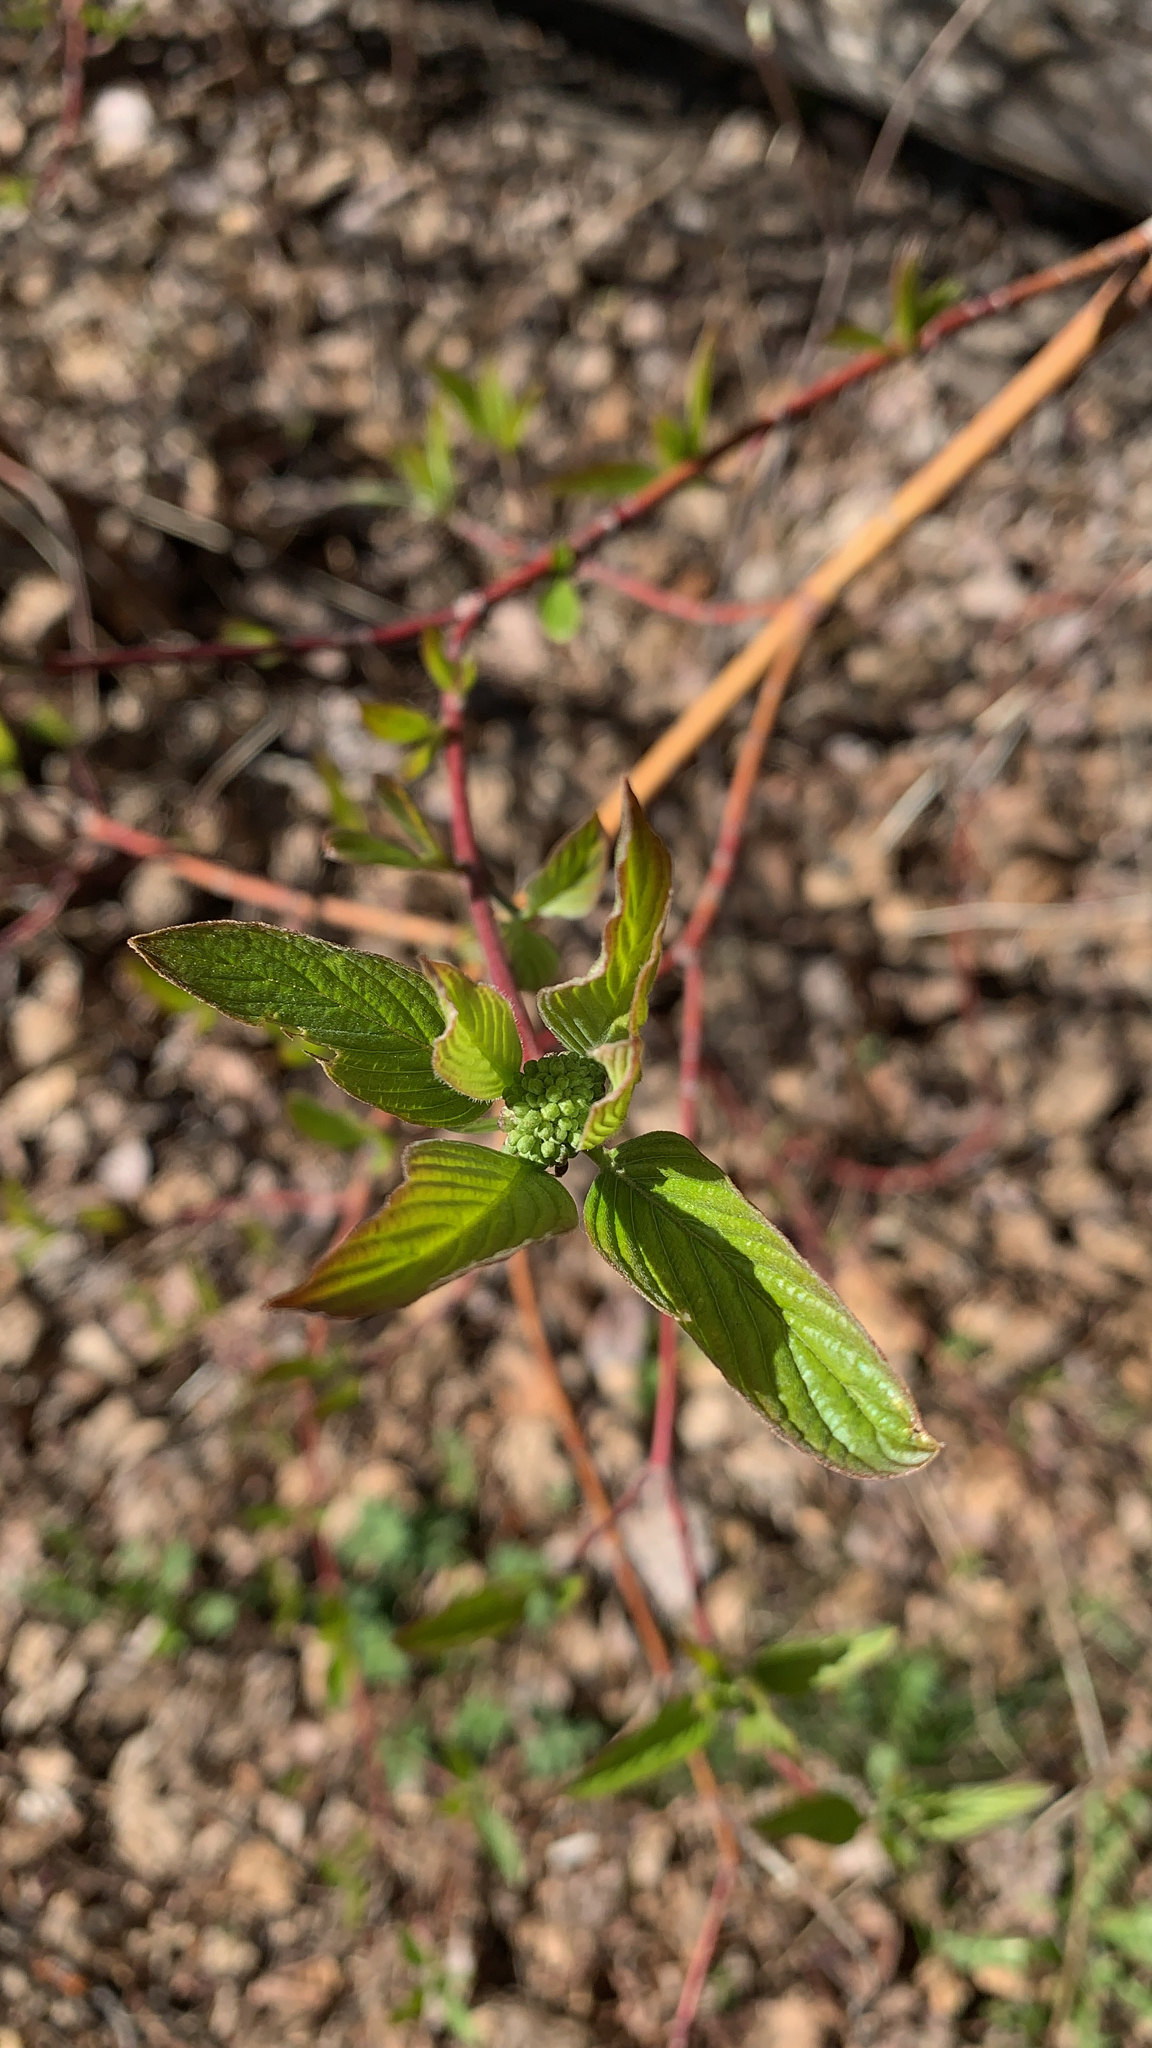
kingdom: Plantae
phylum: Tracheophyta
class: Magnoliopsida
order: Cornales
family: Cornaceae
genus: Cornus
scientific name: Cornus sericea
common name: Red-osier dogwood
